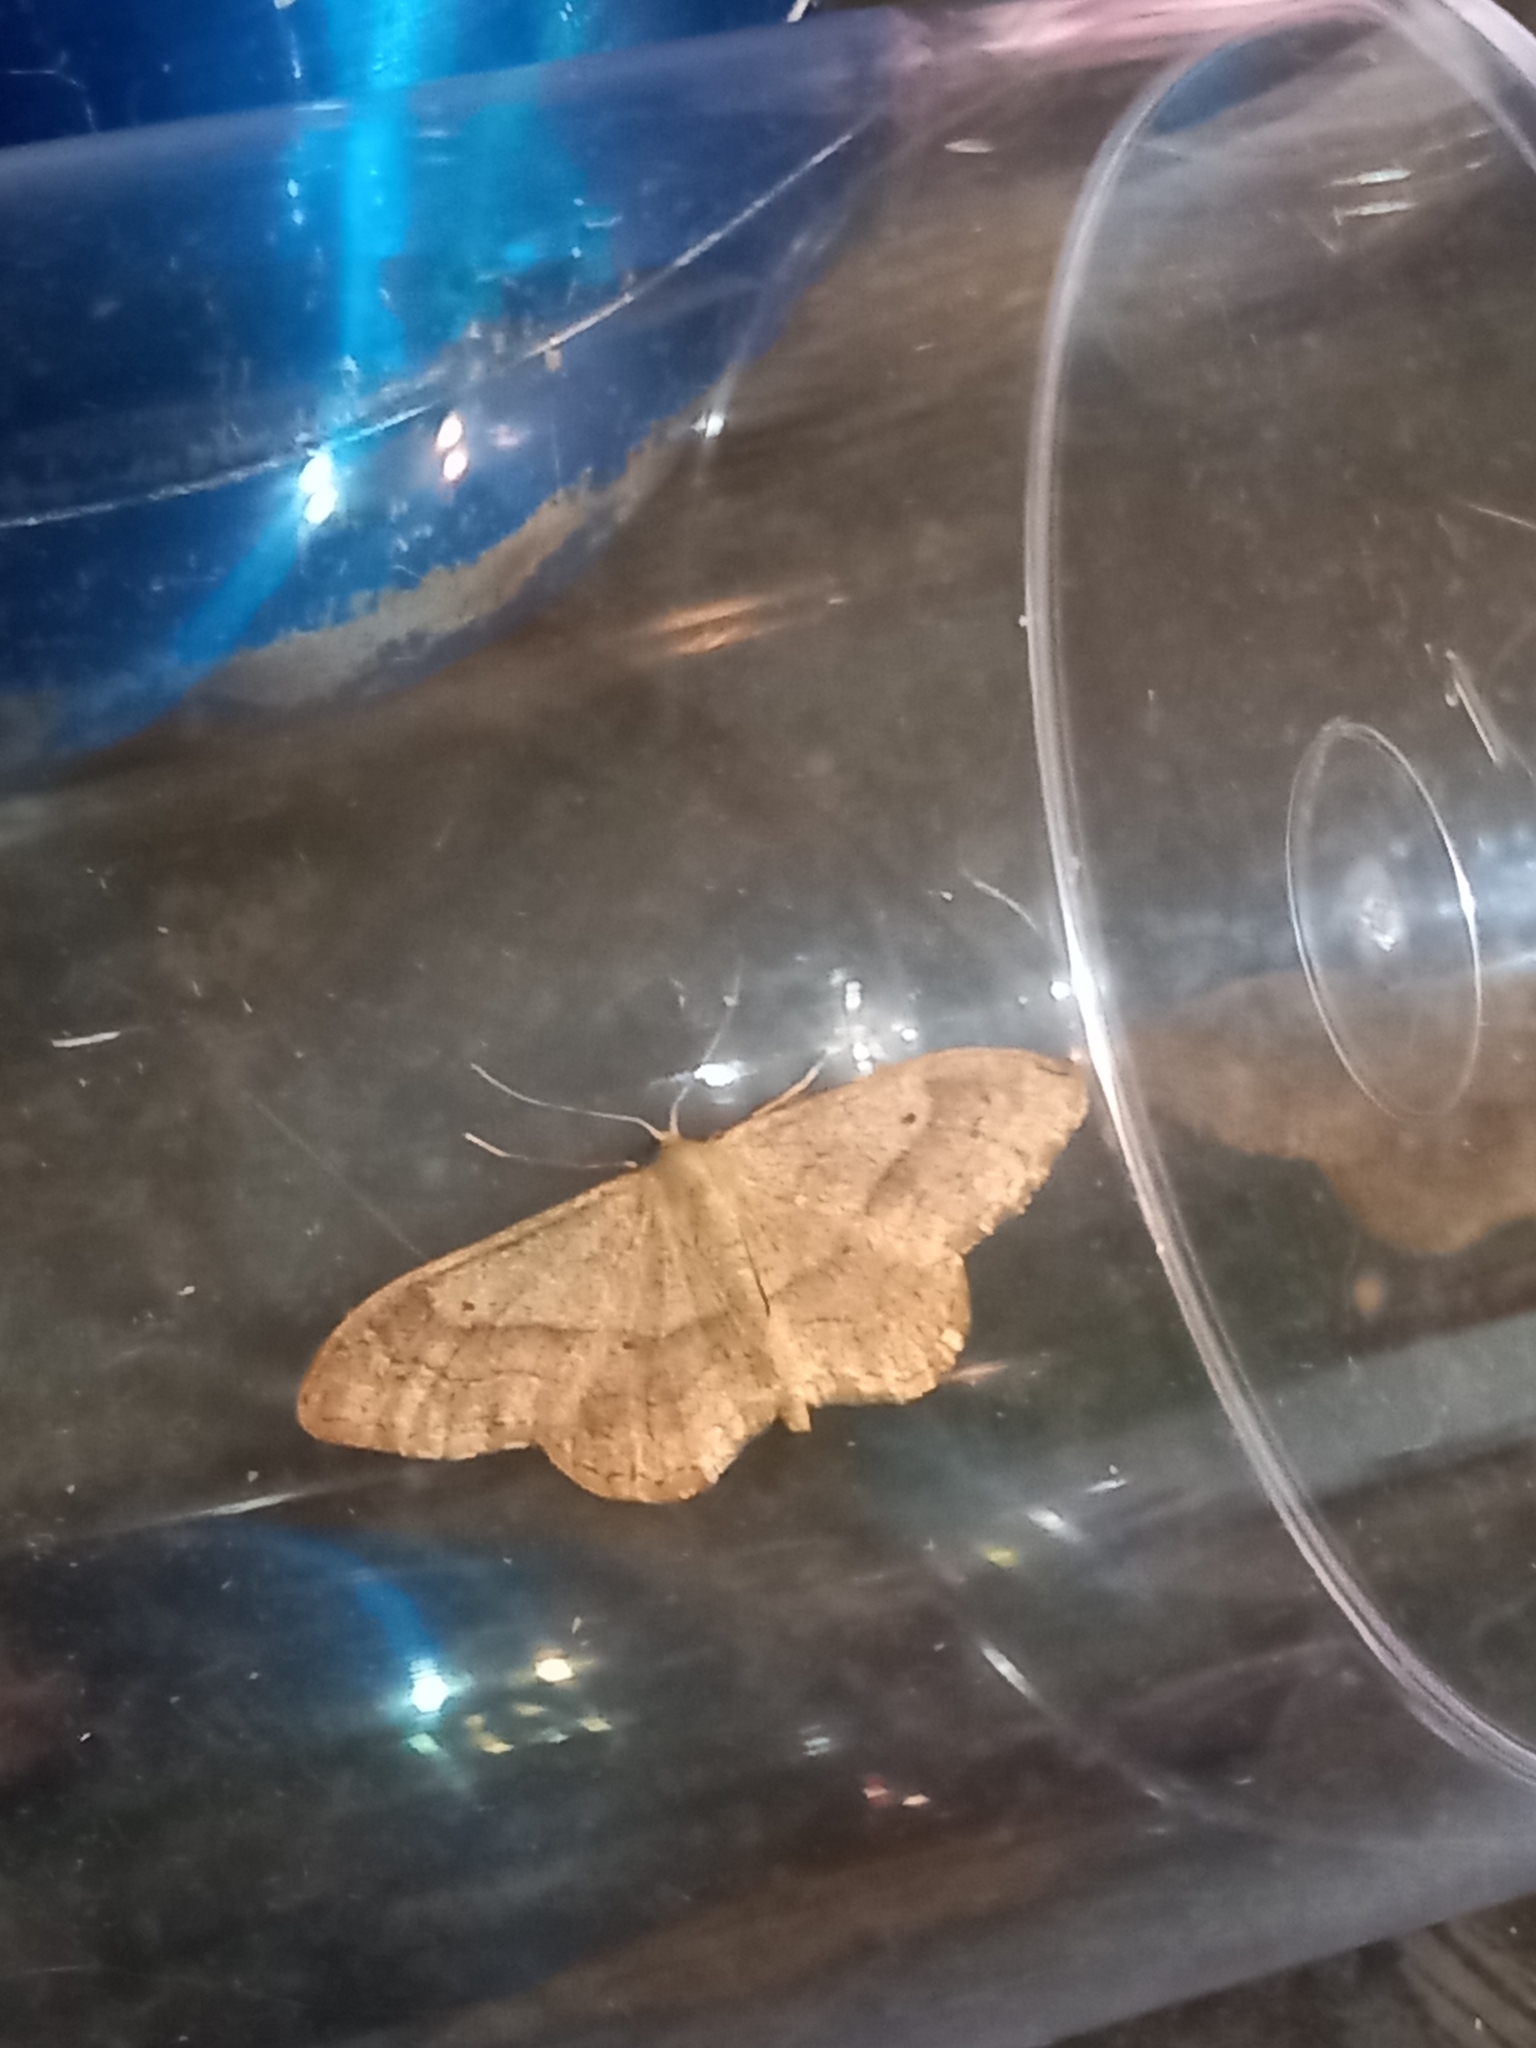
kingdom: Animalia
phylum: Arthropoda
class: Insecta
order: Lepidoptera
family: Geometridae
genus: Idaea
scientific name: Idaea aversata
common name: Riband wave
